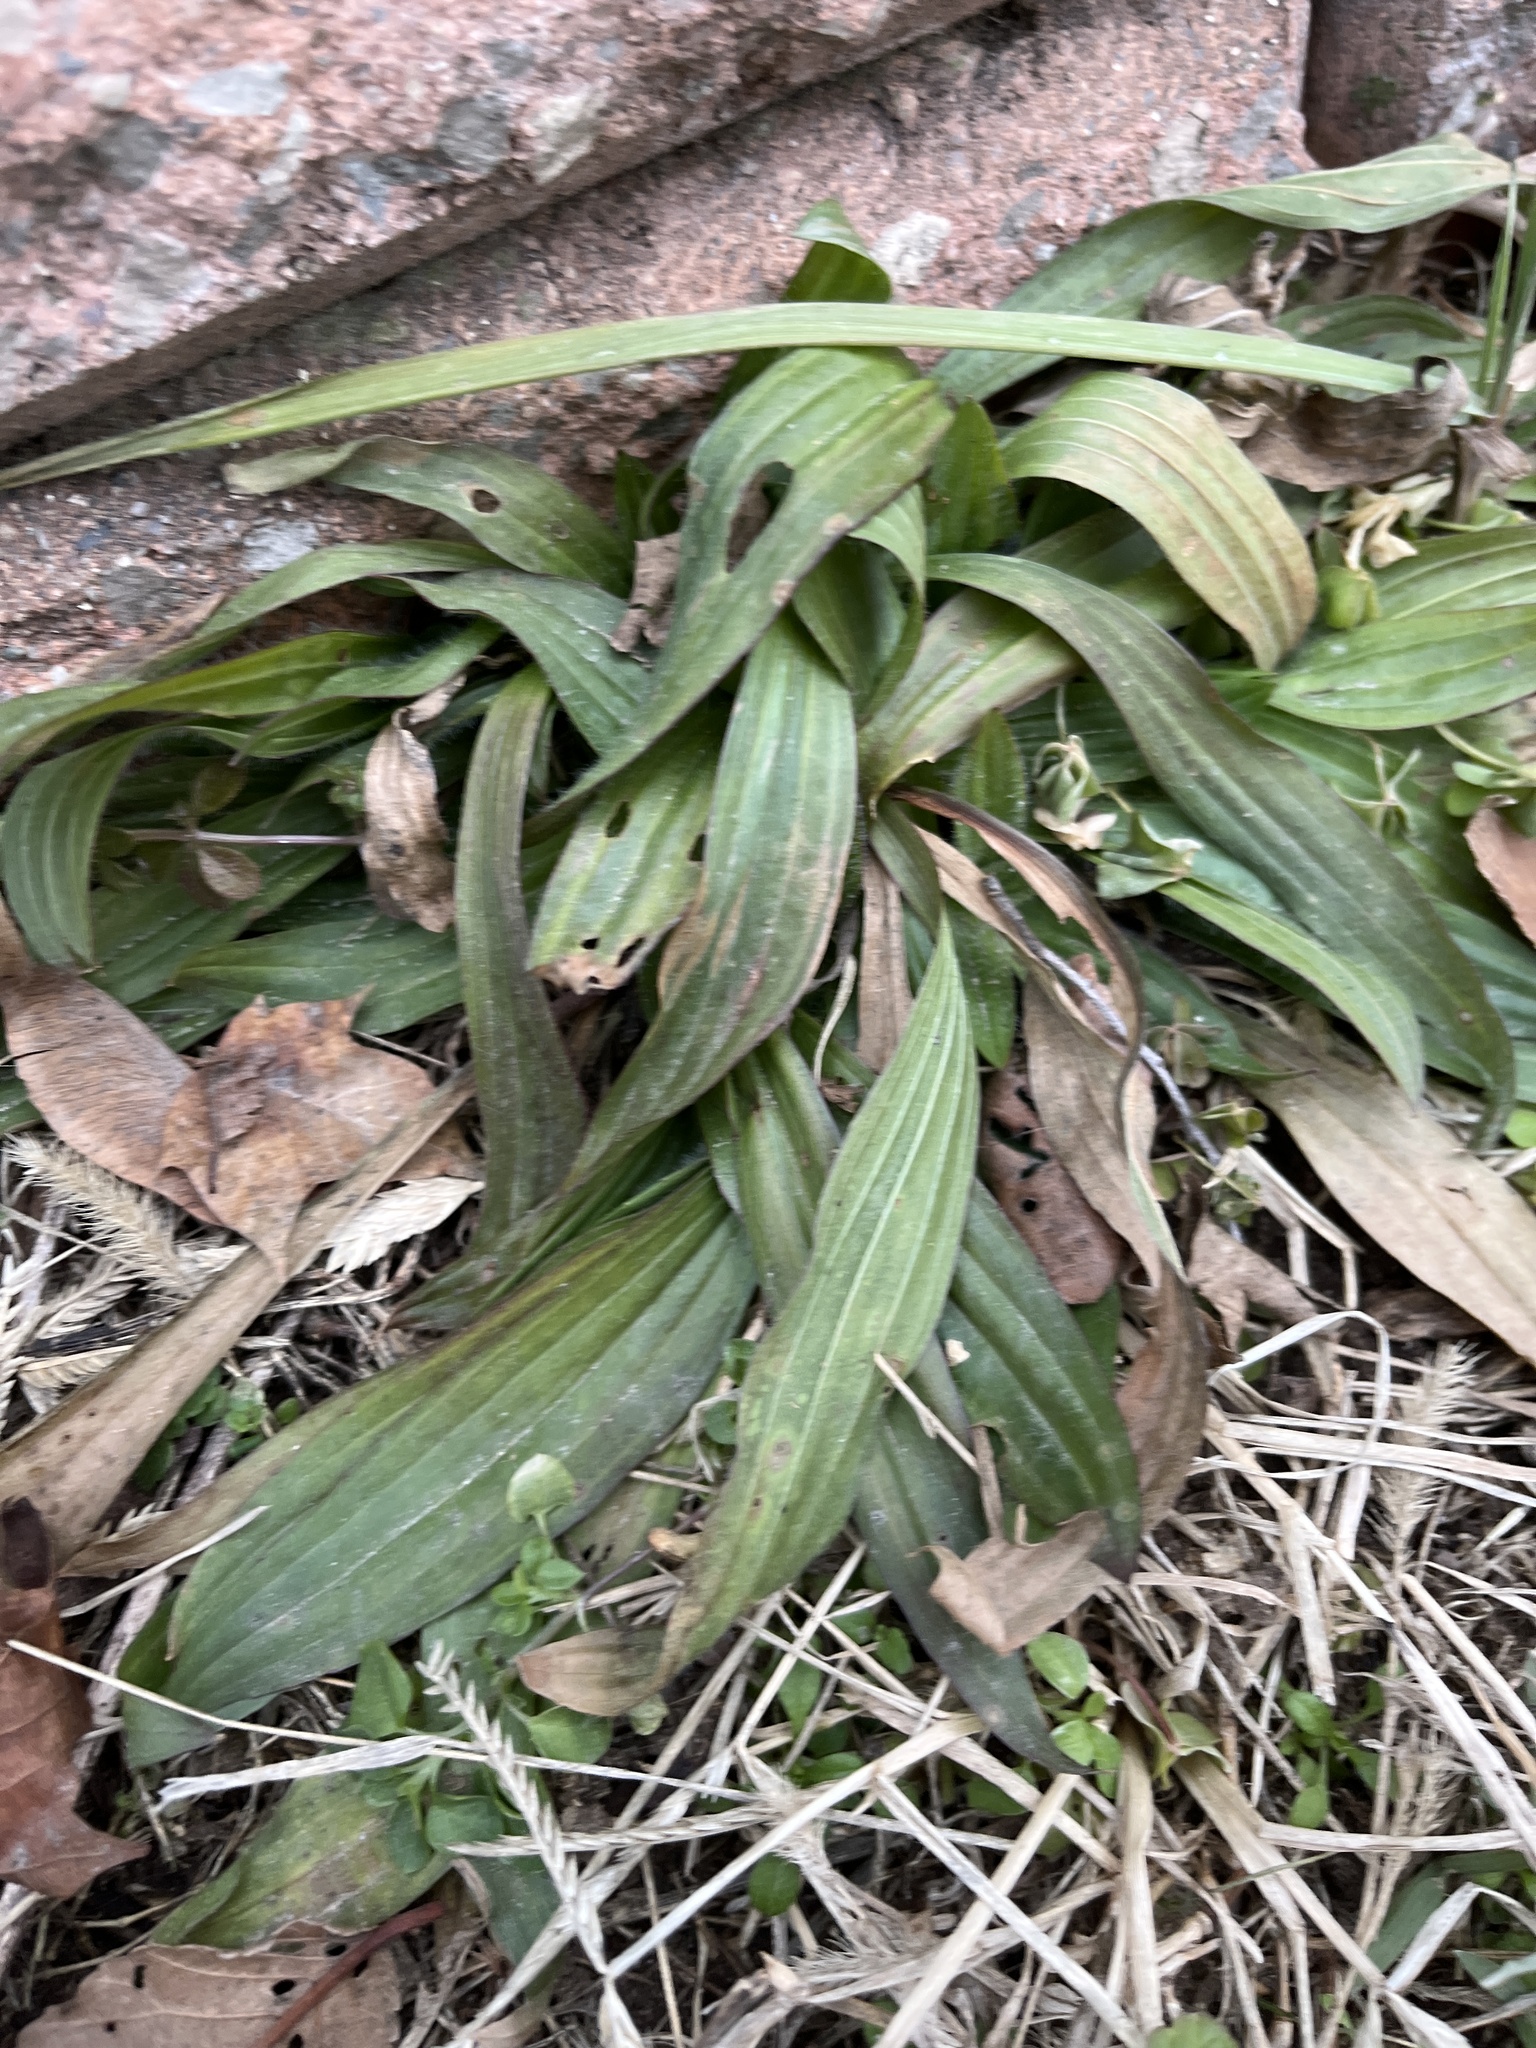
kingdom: Plantae
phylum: Tracheophyta
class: Magnoliopsida
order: Lamiales
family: Plantaginaceae
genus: Plantago
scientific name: Plantago lanceolata
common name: Ribwort plantain
